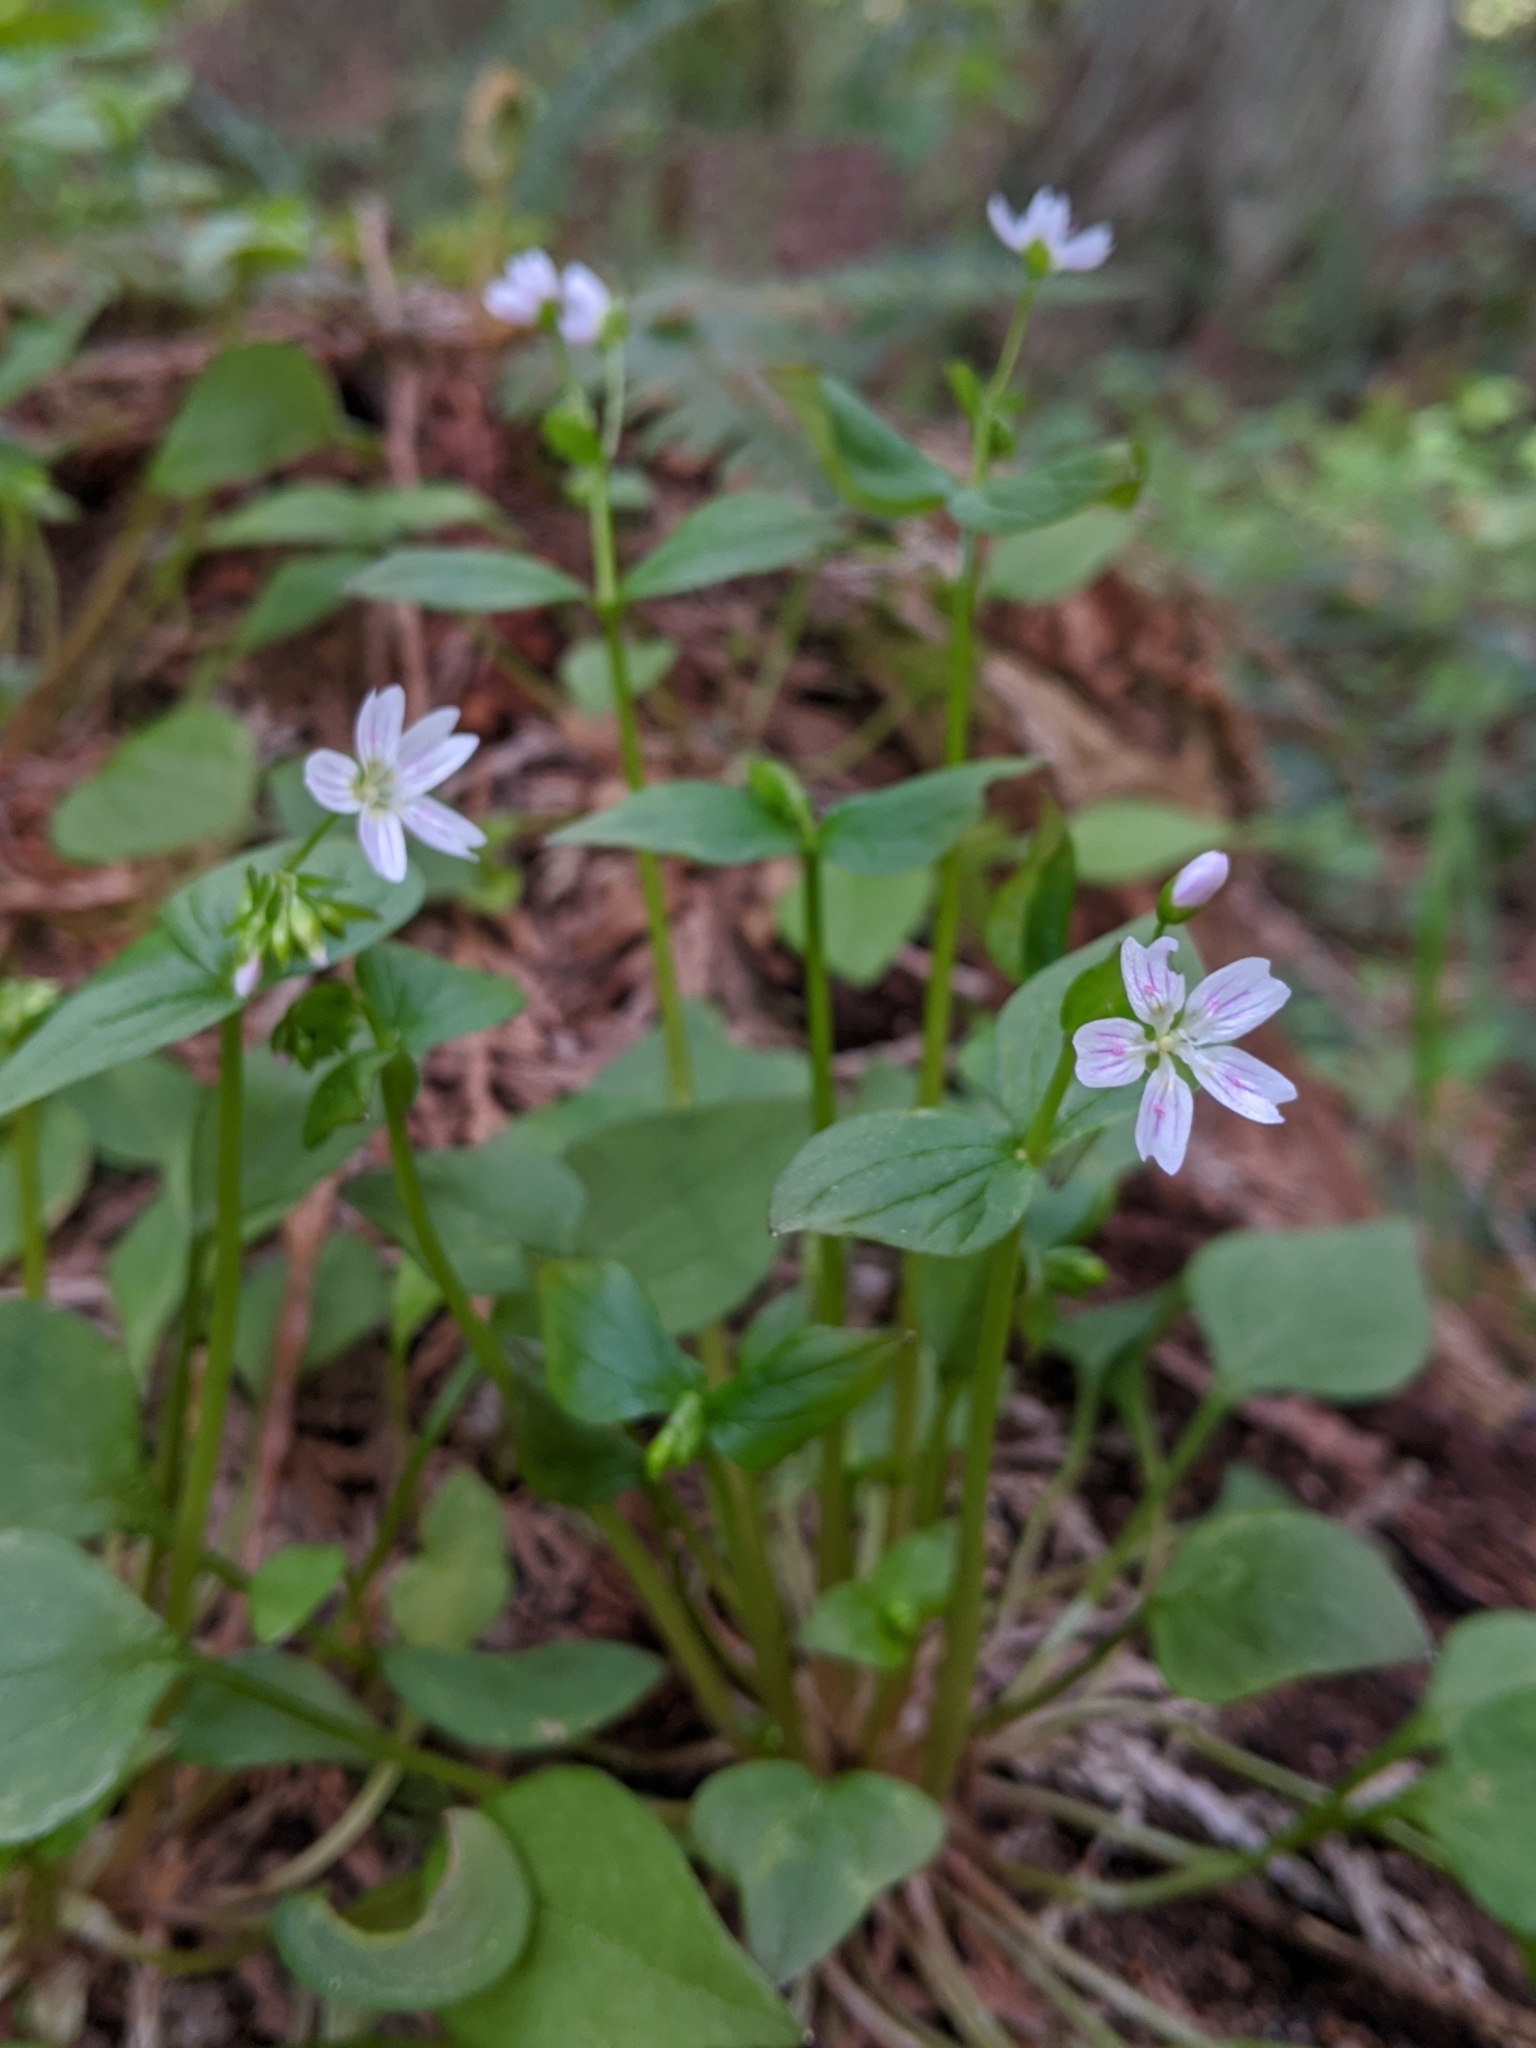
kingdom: Plantae
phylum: Tracheophyta
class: Magnoliopsida
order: Caryophyllales
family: Montiaceae
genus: Claytonia
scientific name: Claytonia sibirica
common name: Pink purslane
